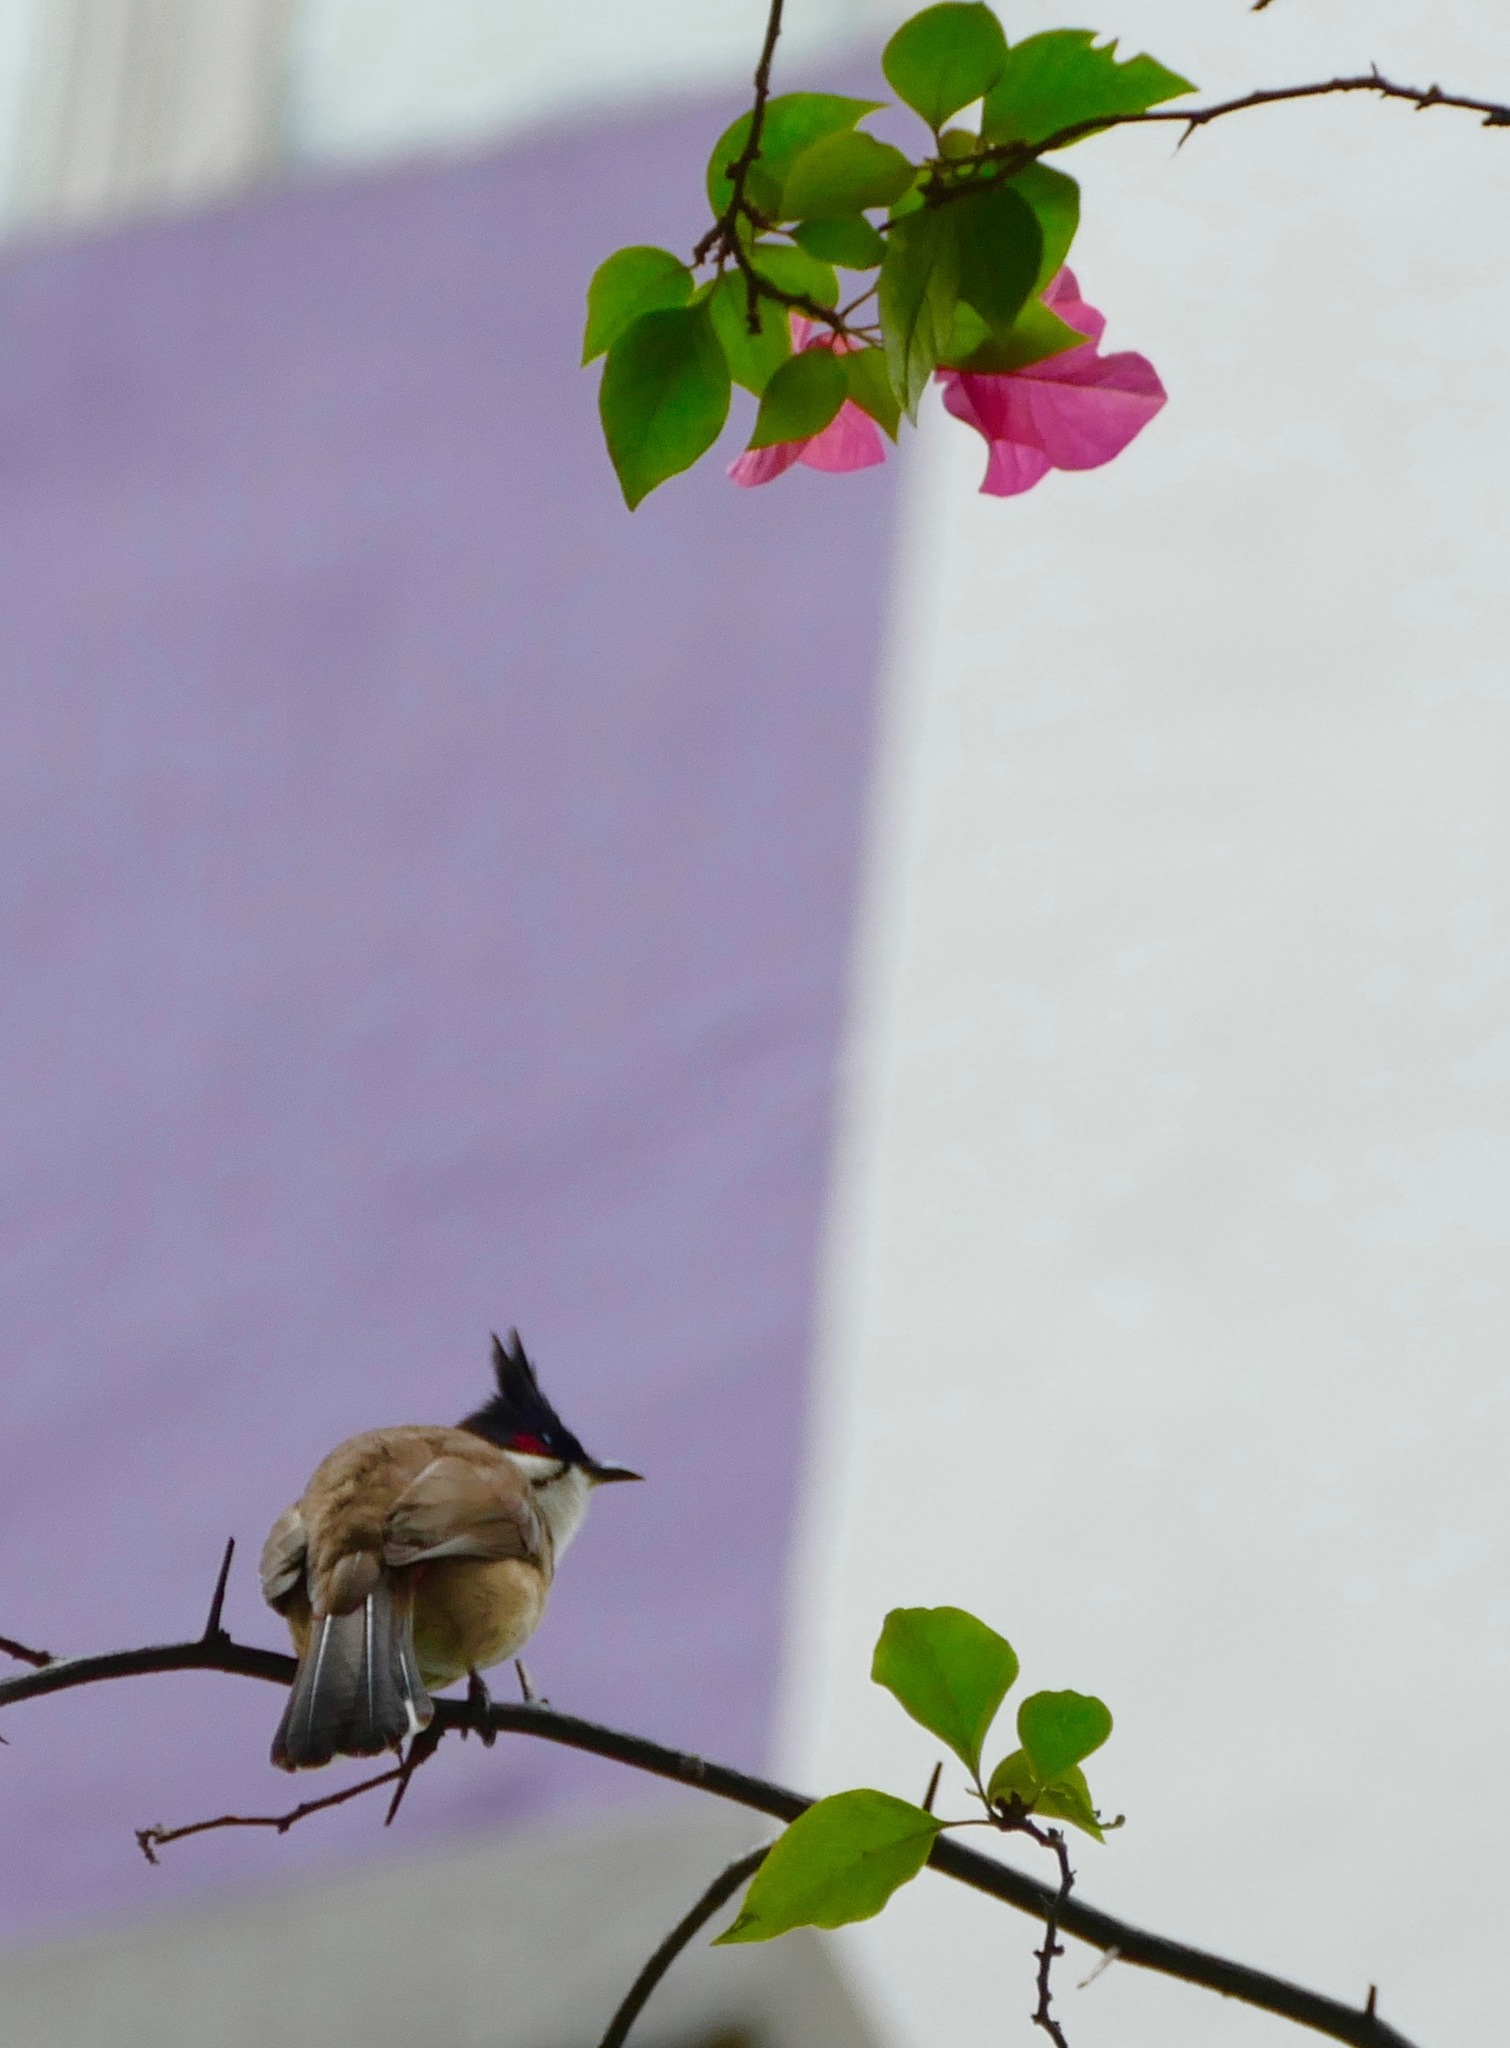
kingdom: Animalia
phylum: Chordata
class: Aves
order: Passeriformes
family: Pycnonotidae
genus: Pycnonotus
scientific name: Pycnonotus jocosus
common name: Red-whiskered bulbul
